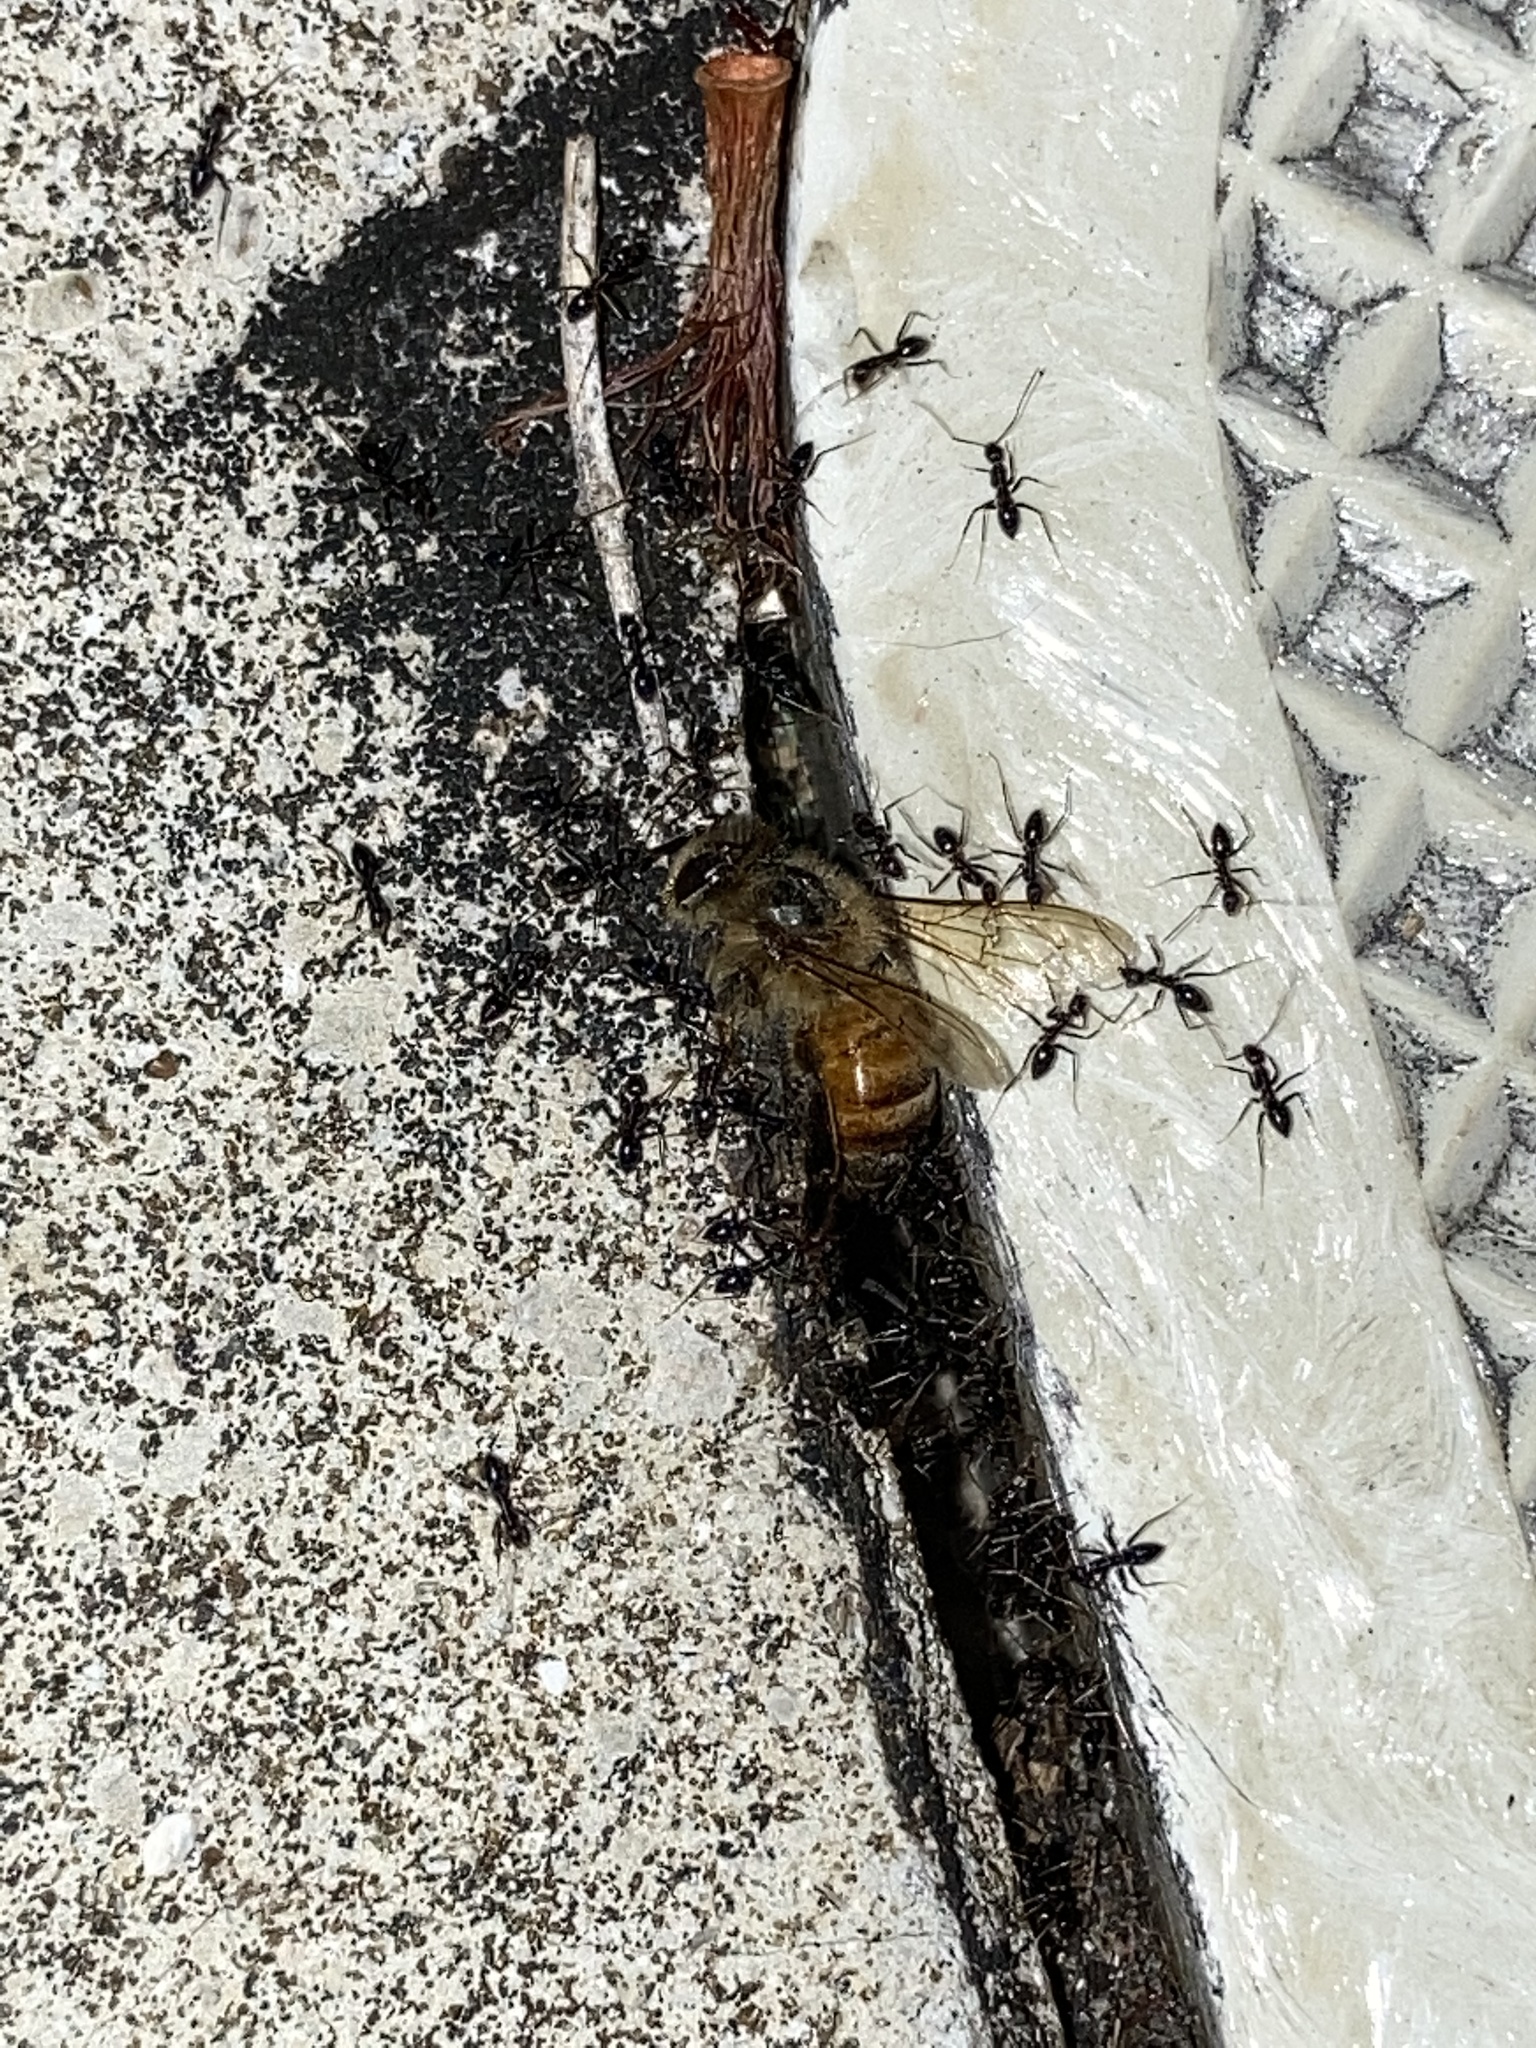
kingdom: Animalia
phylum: Arthropoda
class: Insecta
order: Hymenoptera
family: Apidae
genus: Apis
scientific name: Apis mellifera
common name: Honey bee
